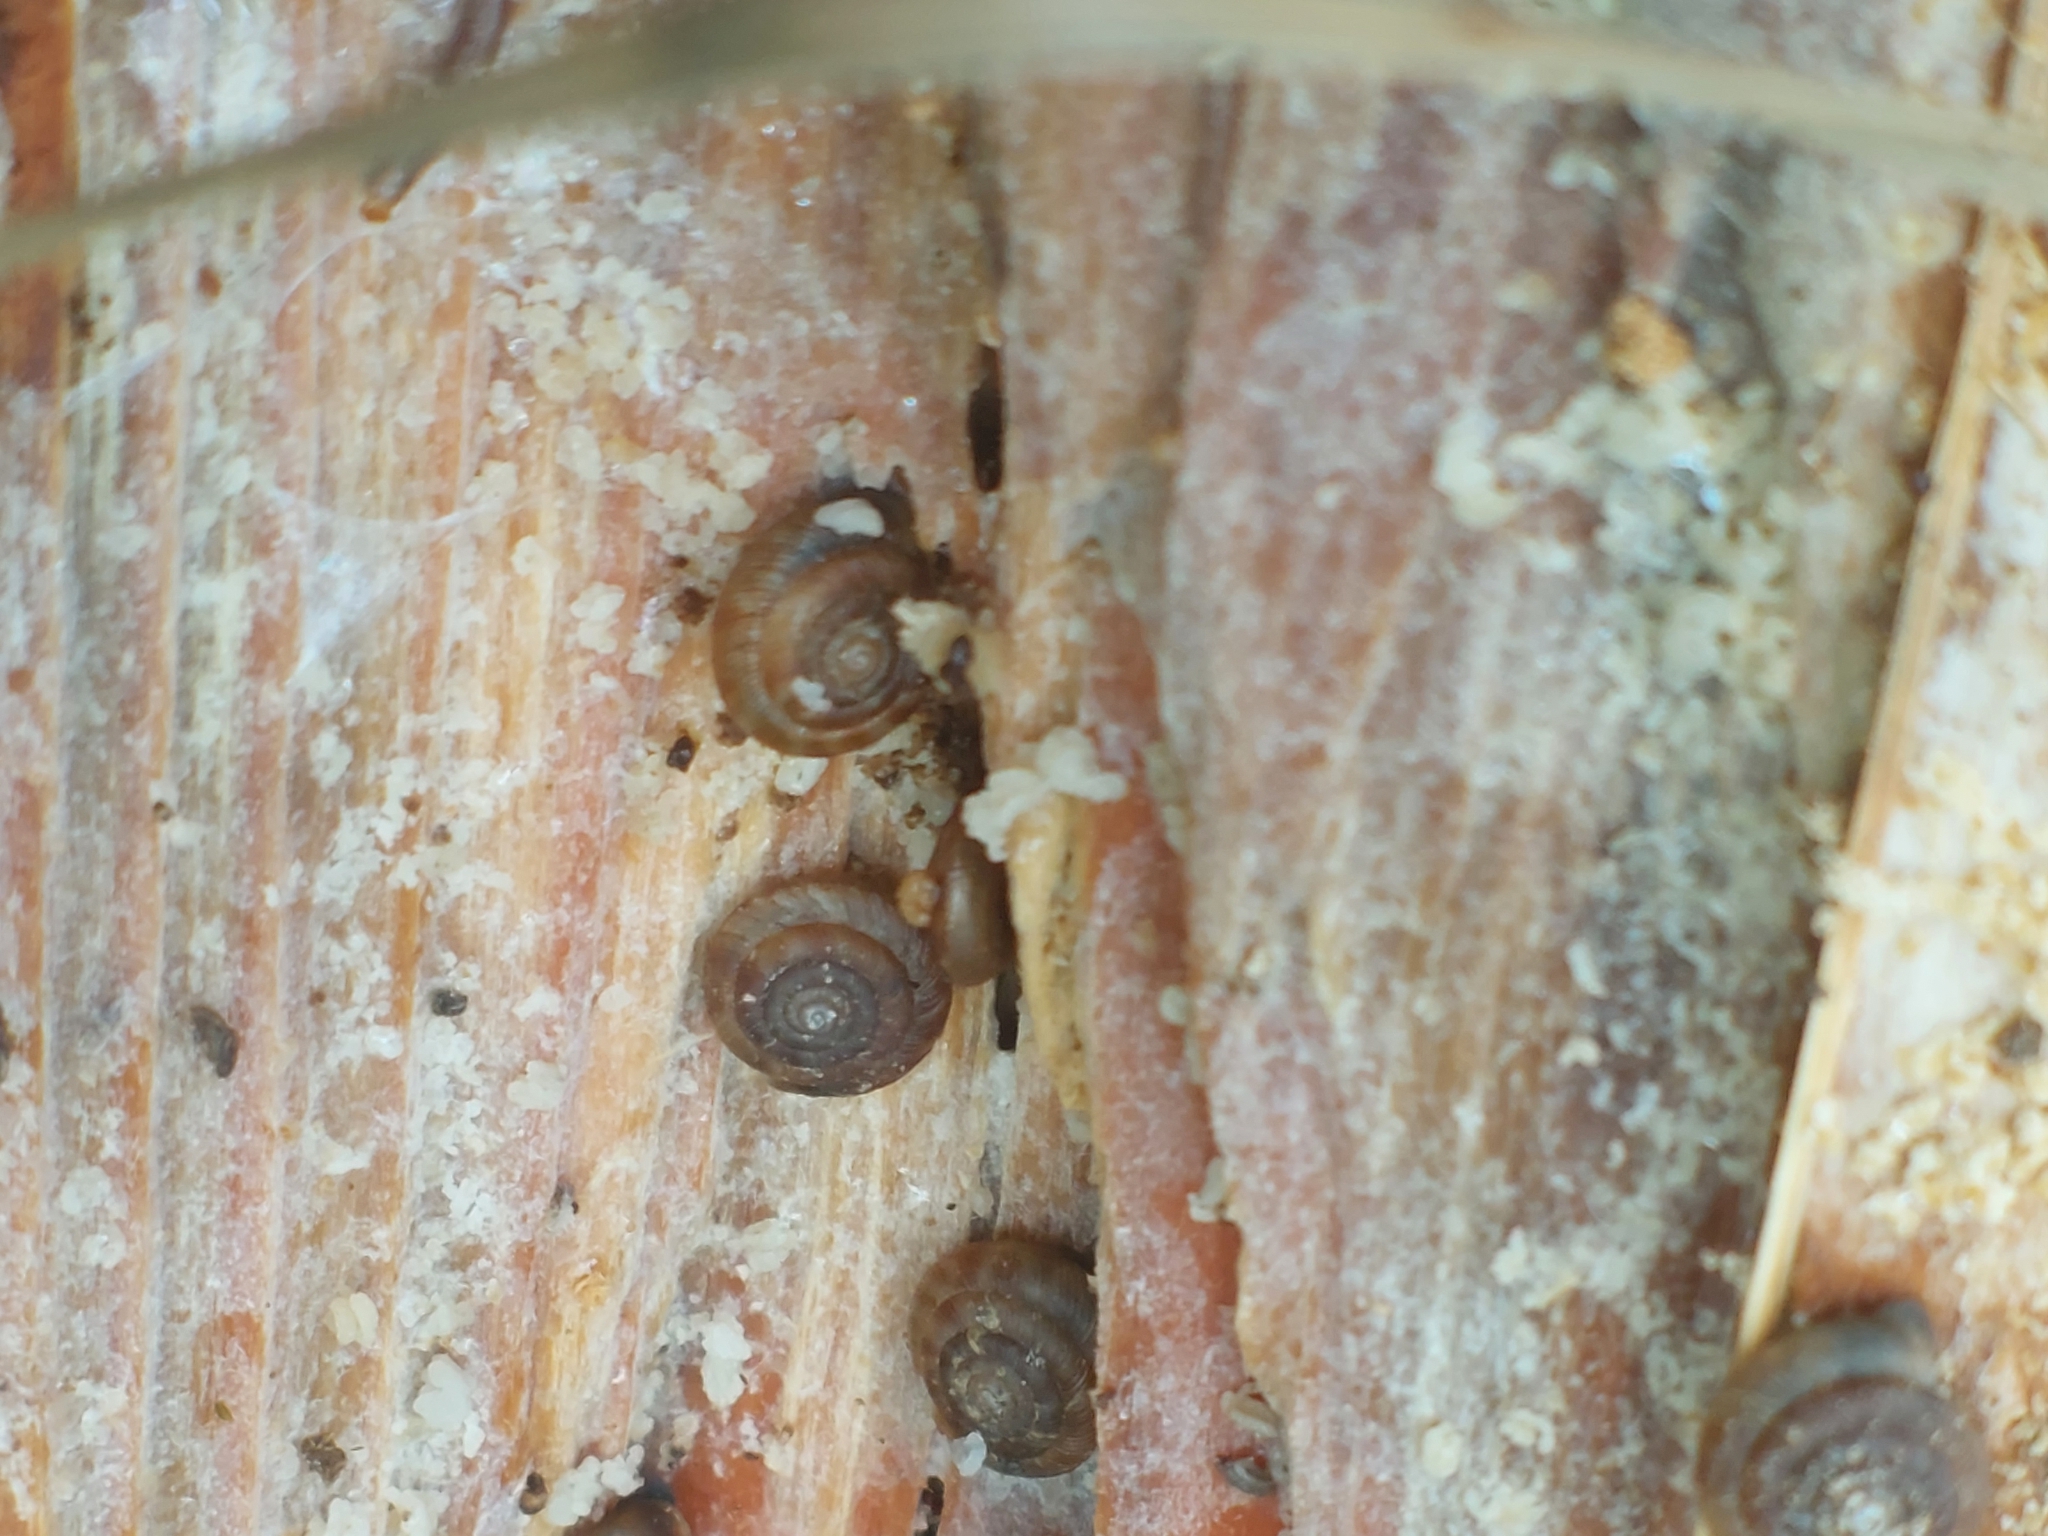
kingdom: Animalia
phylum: Mollusca
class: Gastropoda
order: Stylommatophora
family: Discidae
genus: Discus
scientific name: Discus rotundatus
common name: Rounded snail
